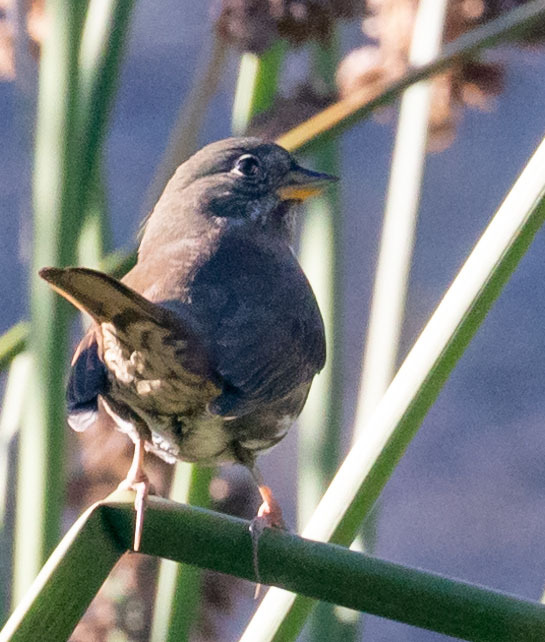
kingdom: Animalia
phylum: Chordata
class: Aves
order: Passeriformes
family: Passerellidae
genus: Passerella
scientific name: Passerella iliaca
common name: Fox sparrow
